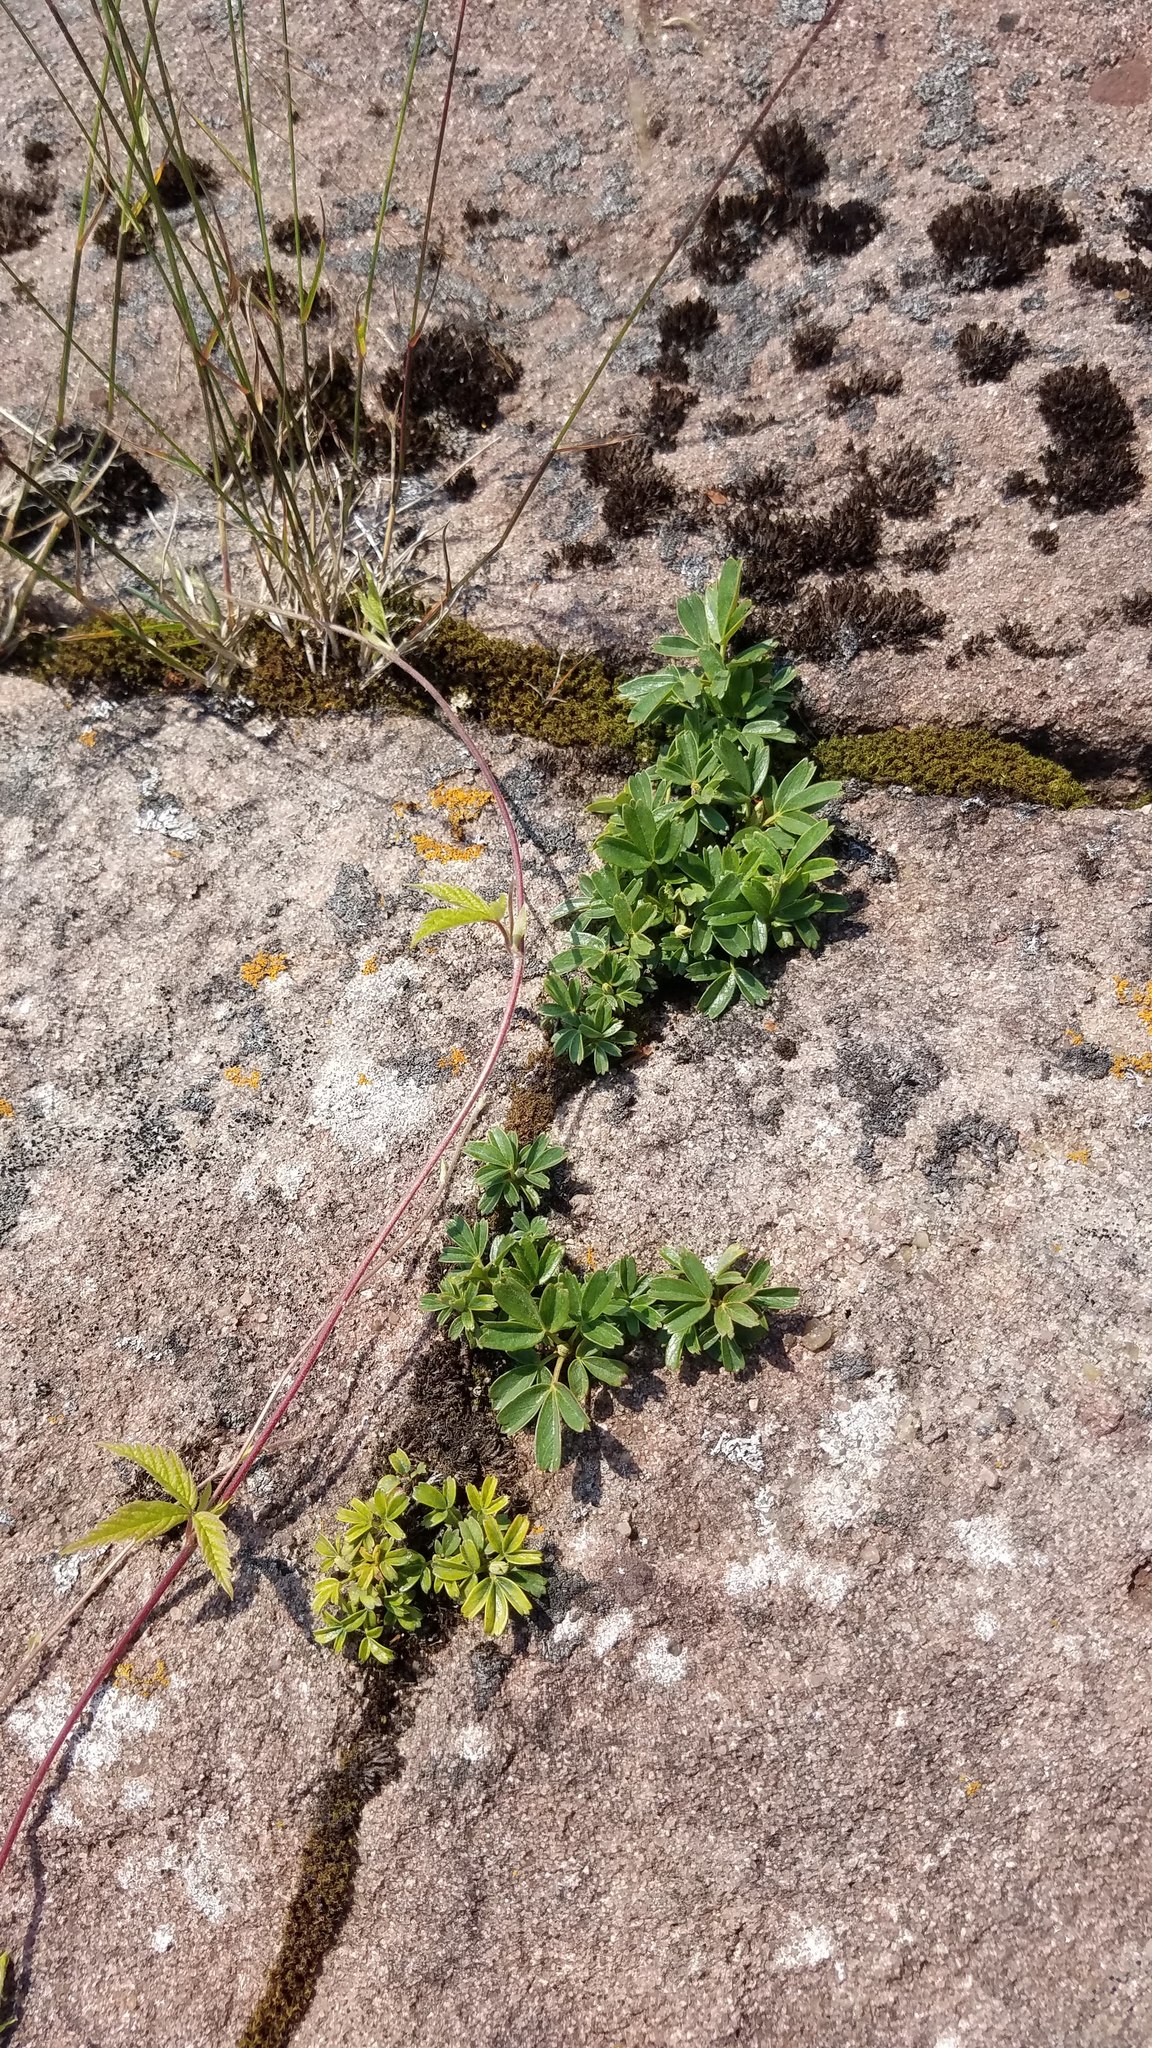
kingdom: Plantae
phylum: Tracheophyta
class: Magnoliopsida
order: Rosales
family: Rosaceae
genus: Sibbaldia
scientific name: Sibbaldia tridentata
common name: Three-toothed cinquefoil
